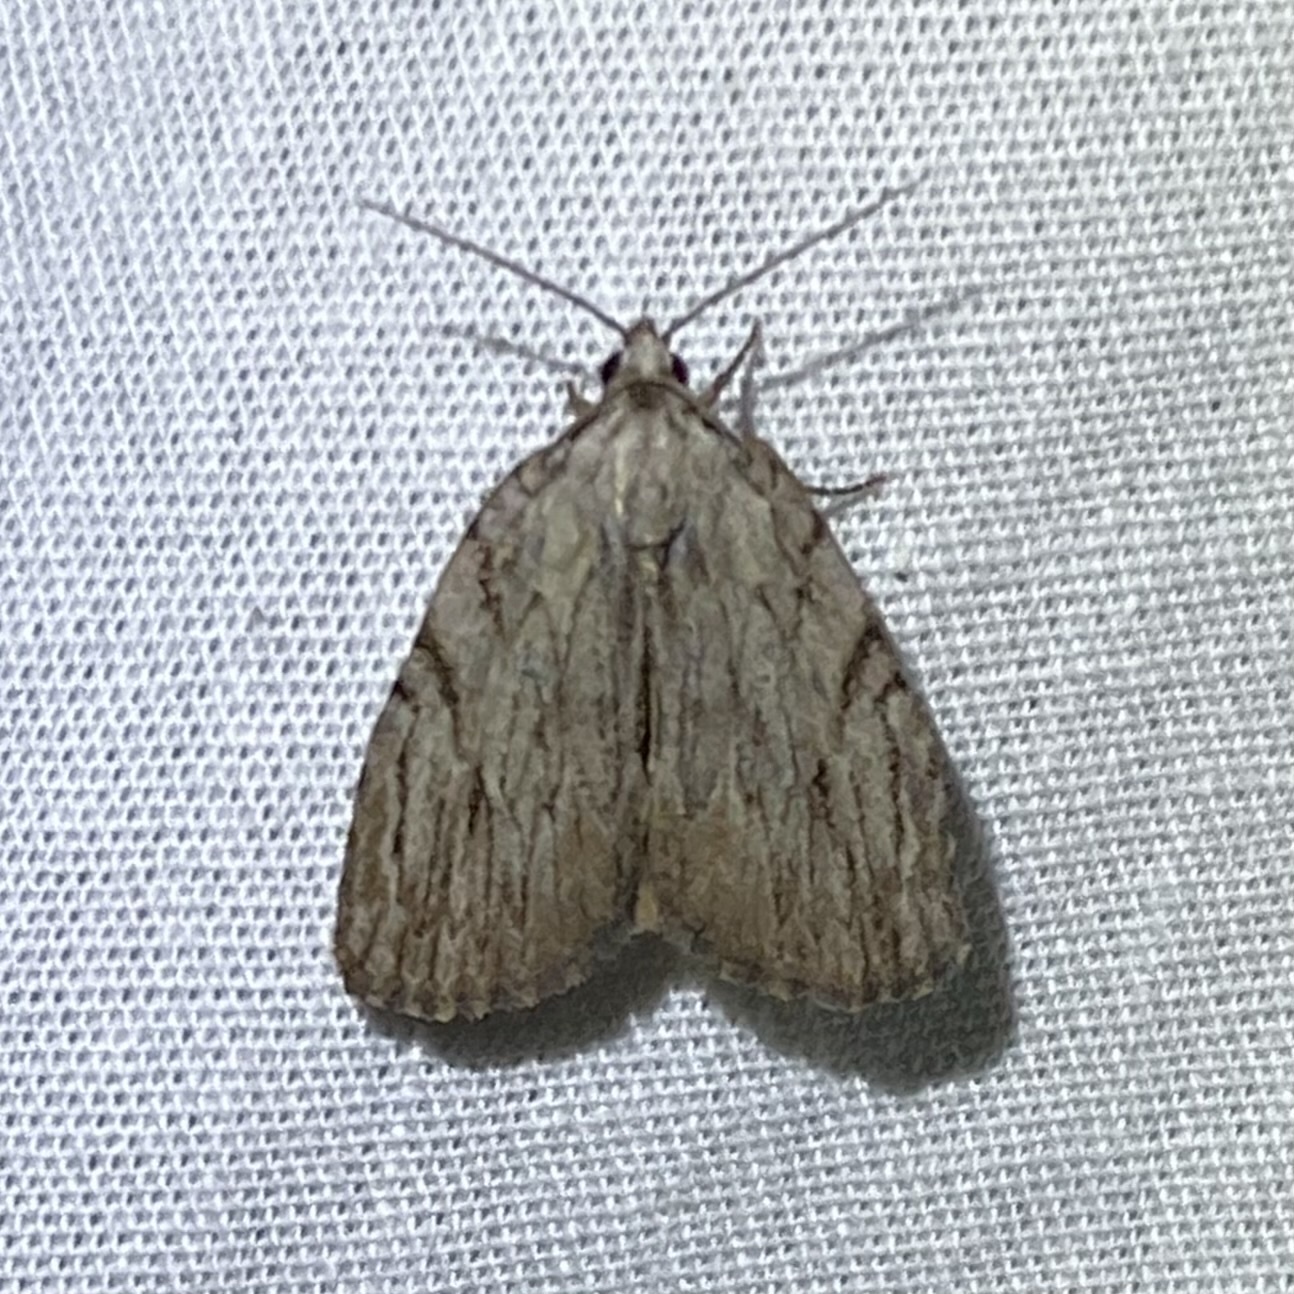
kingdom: Animalia
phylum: Arthropoda
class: Insecta
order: Lepidoptera
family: Noctuidae
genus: Balsa
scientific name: Balsa tristrigella
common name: Three-lined balsa moth
